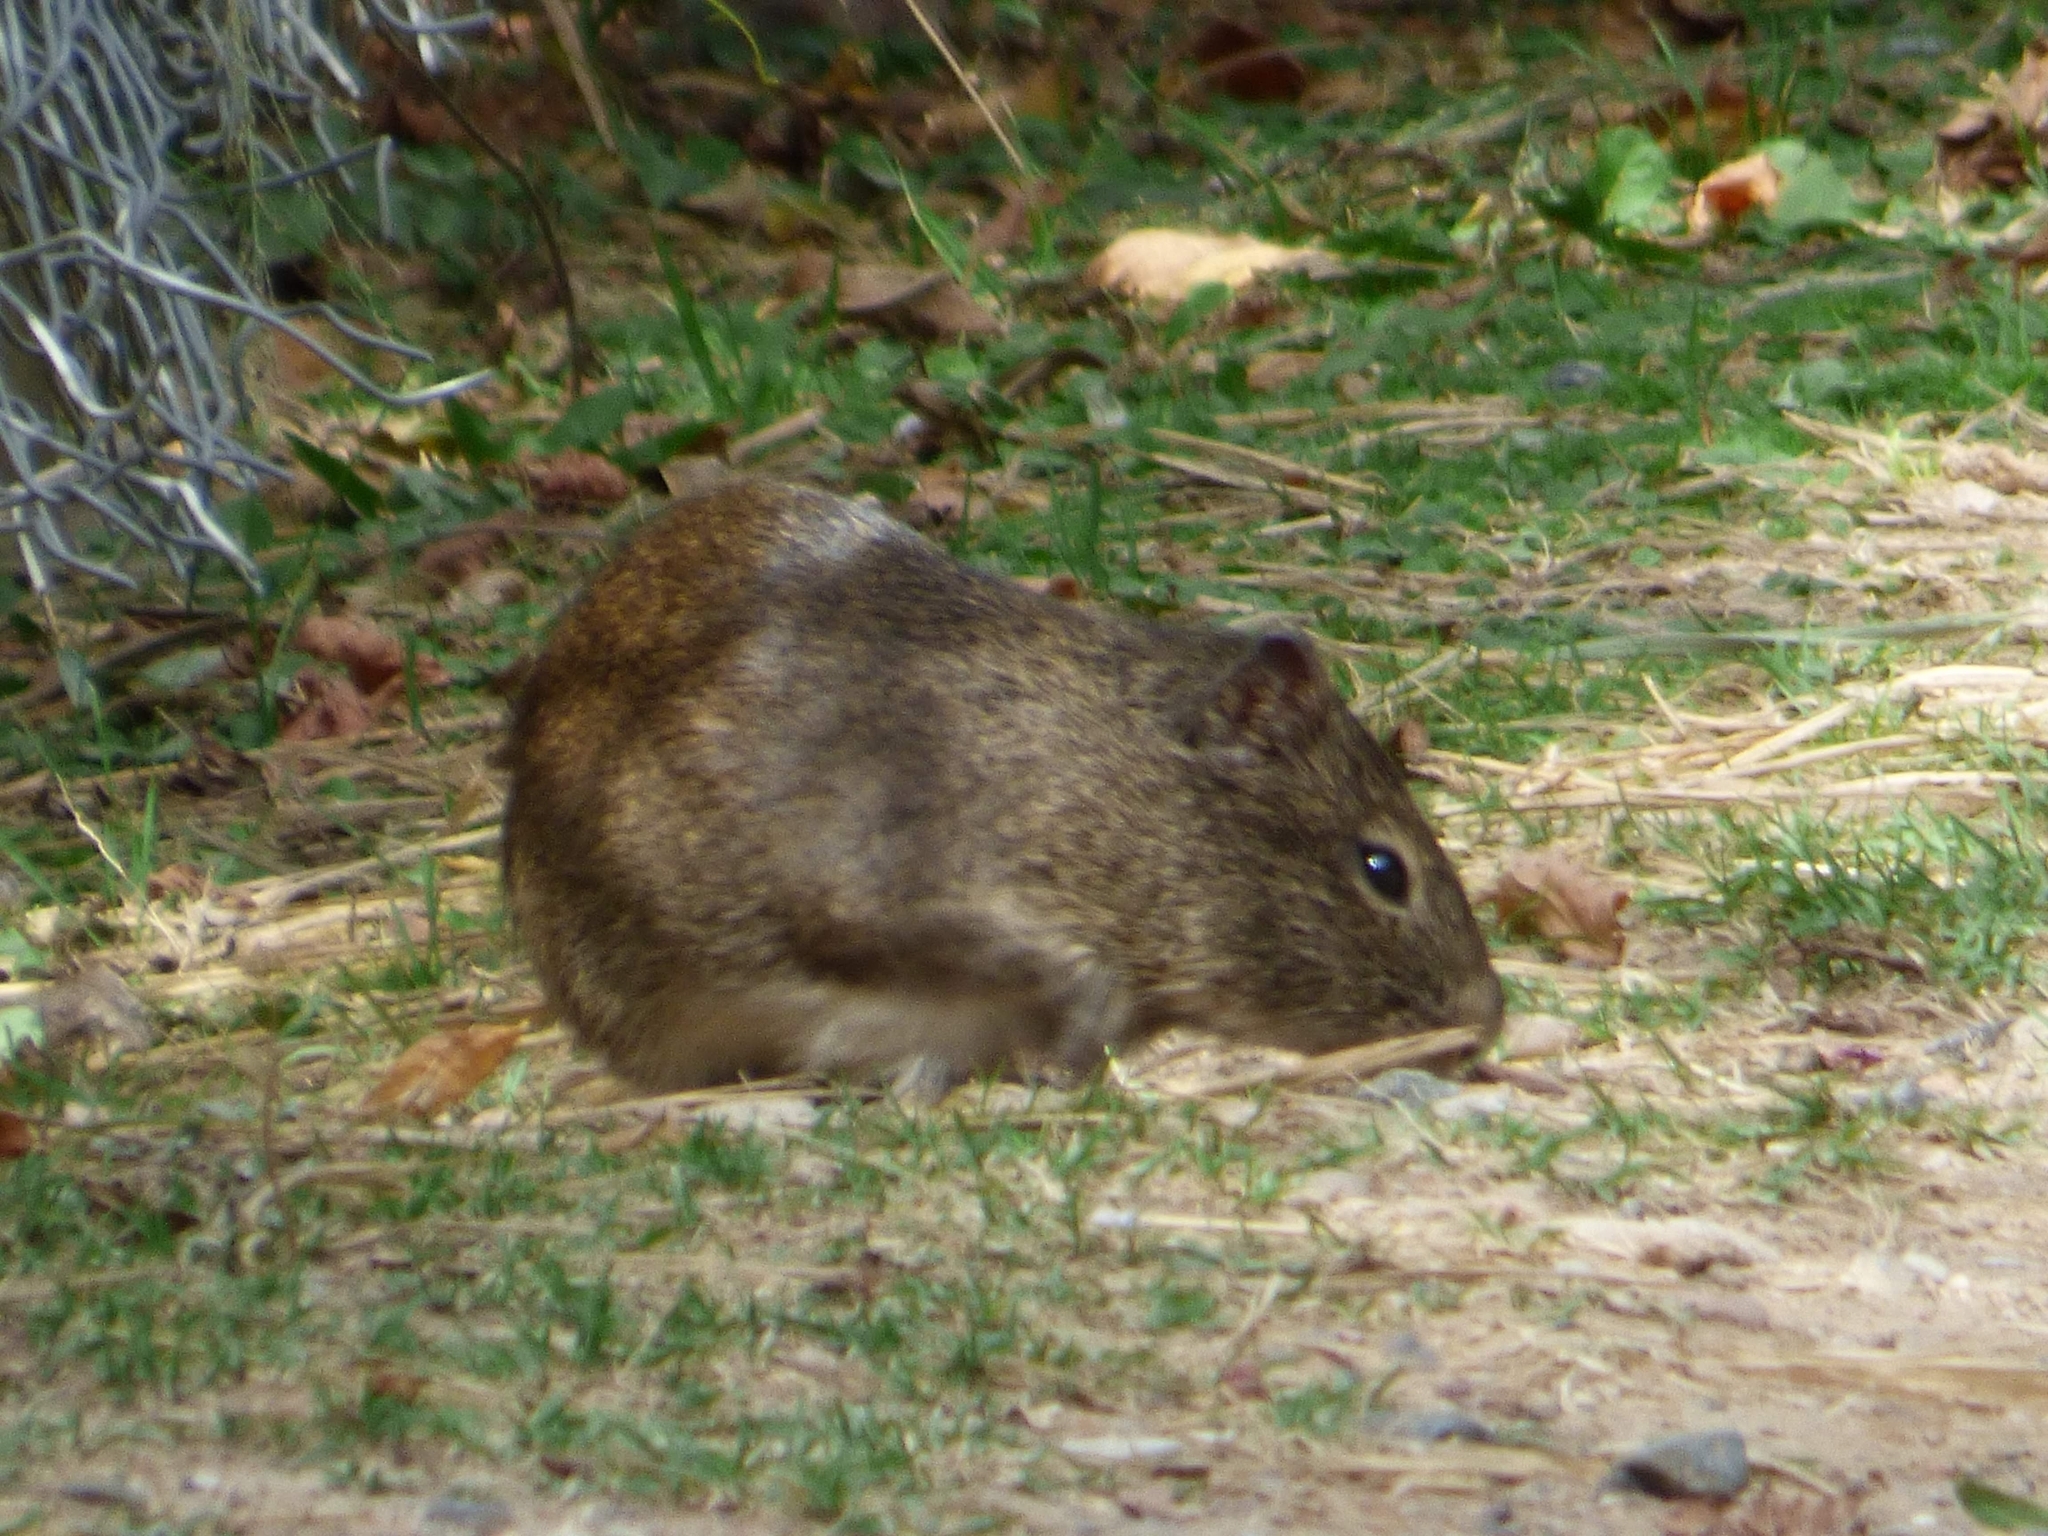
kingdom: Animalia
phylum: Chordata
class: Mammalia
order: Rodentia
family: Caviidae
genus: Cavia
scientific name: Cavia aperea
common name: Brazilian guinea pig
